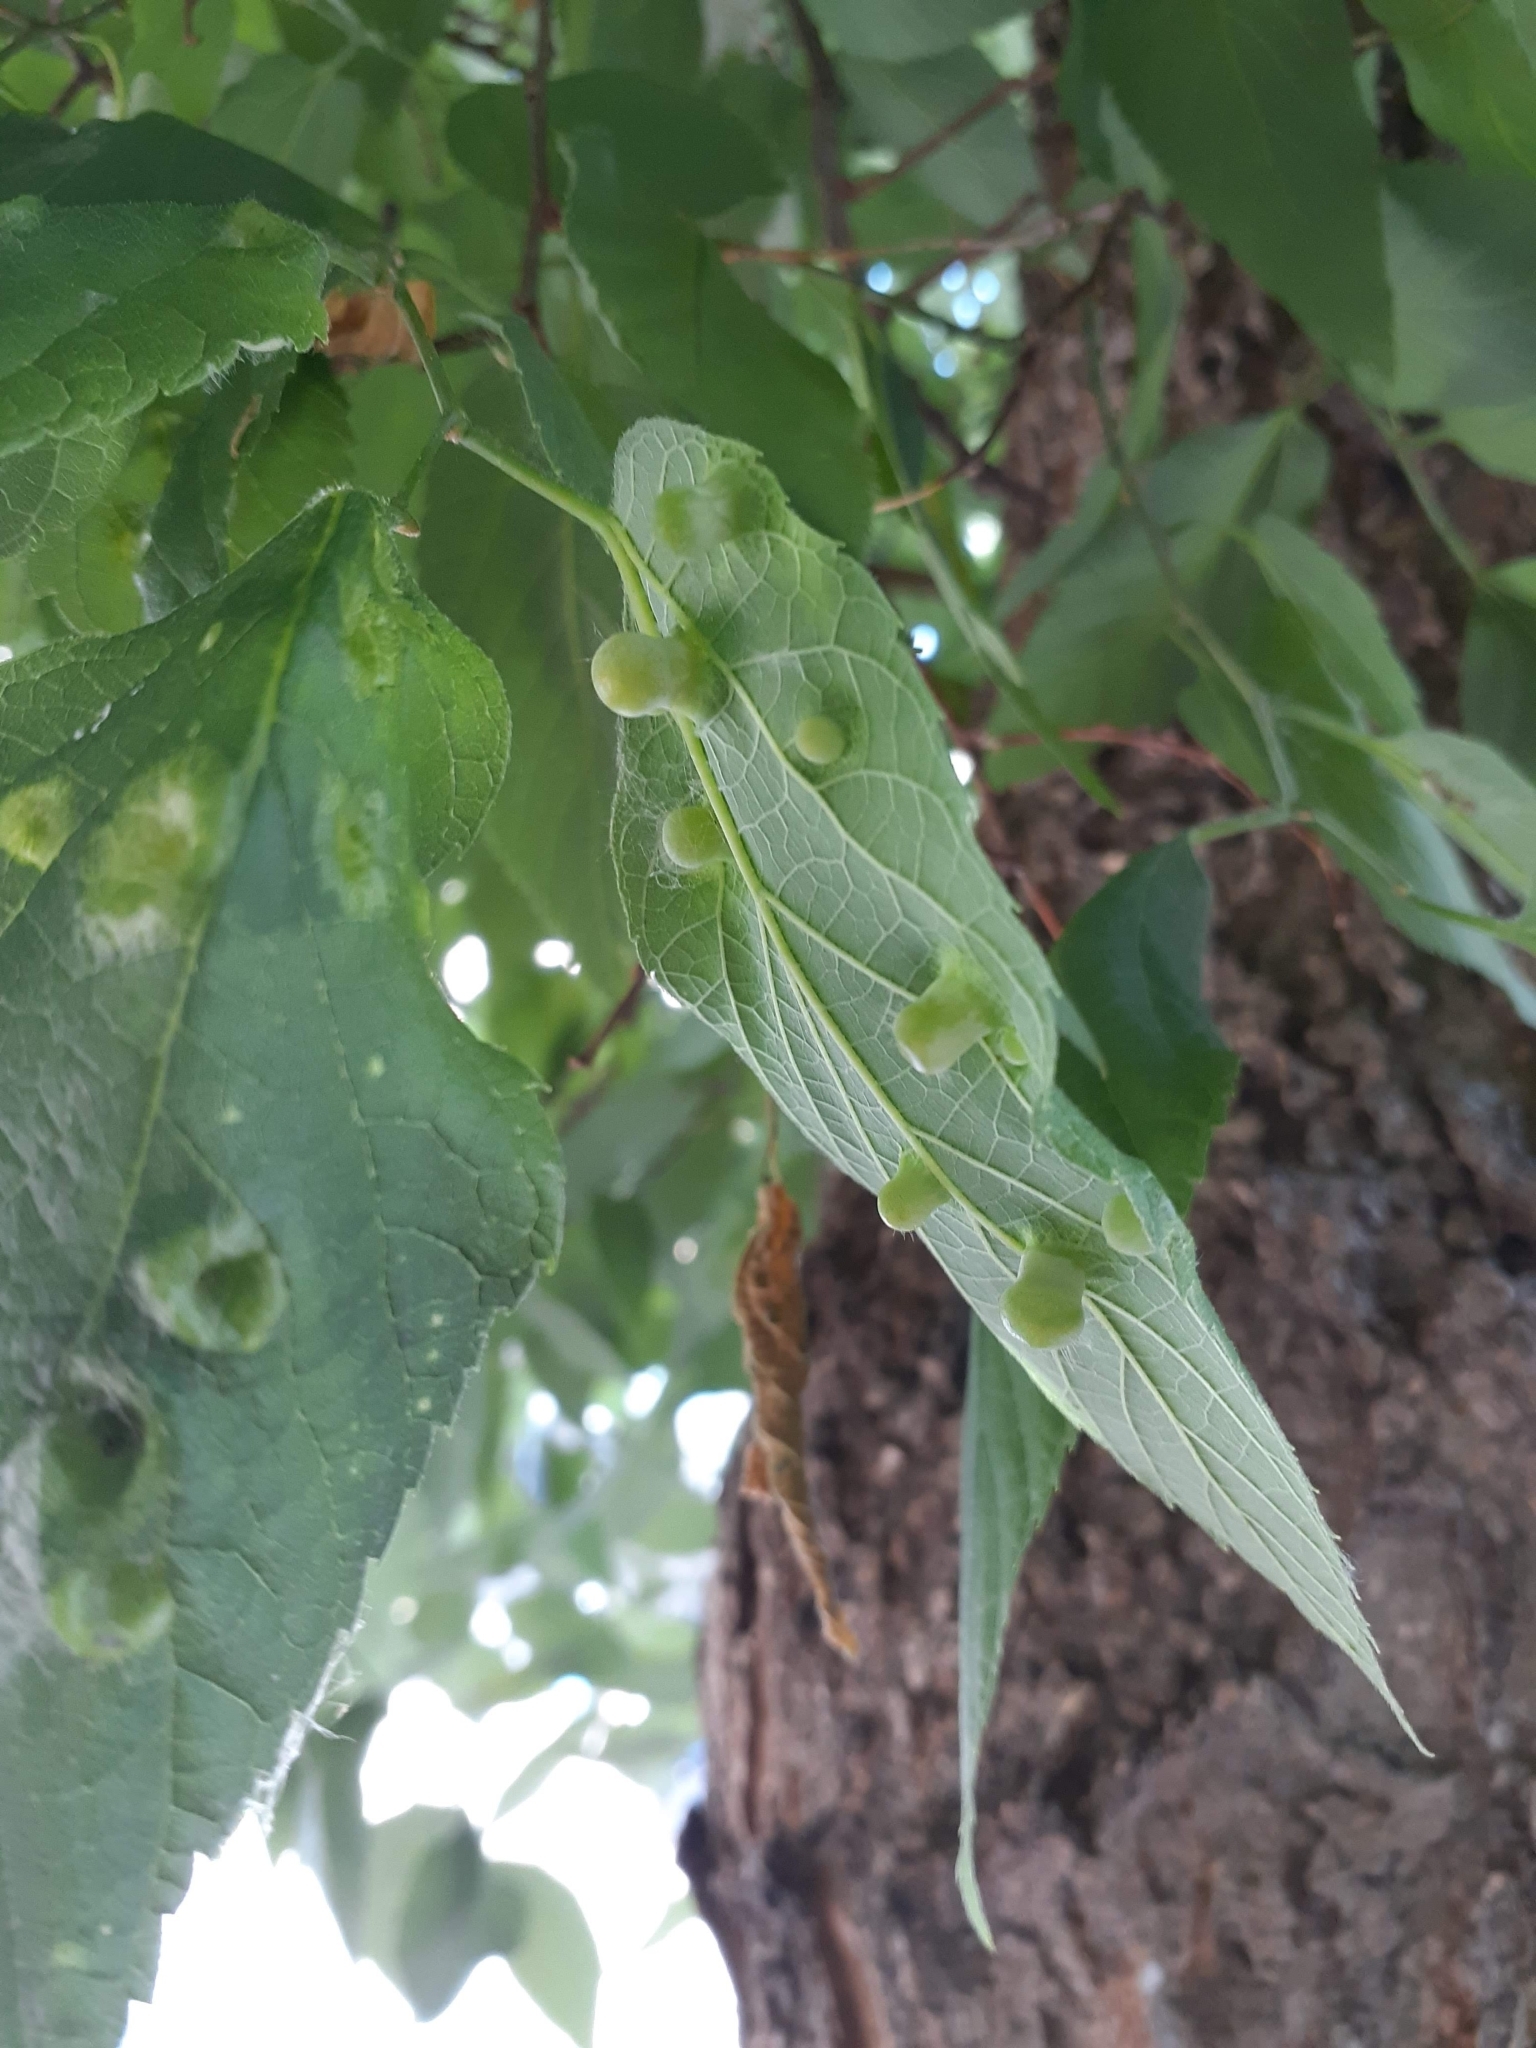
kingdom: Animalia
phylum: Arthropoda
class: Insecta
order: Hemiptera
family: Aphalaridae
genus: Pachypsylla
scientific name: Pachypsylla celtidismamma
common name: Hackberry nipplegall psyllid
